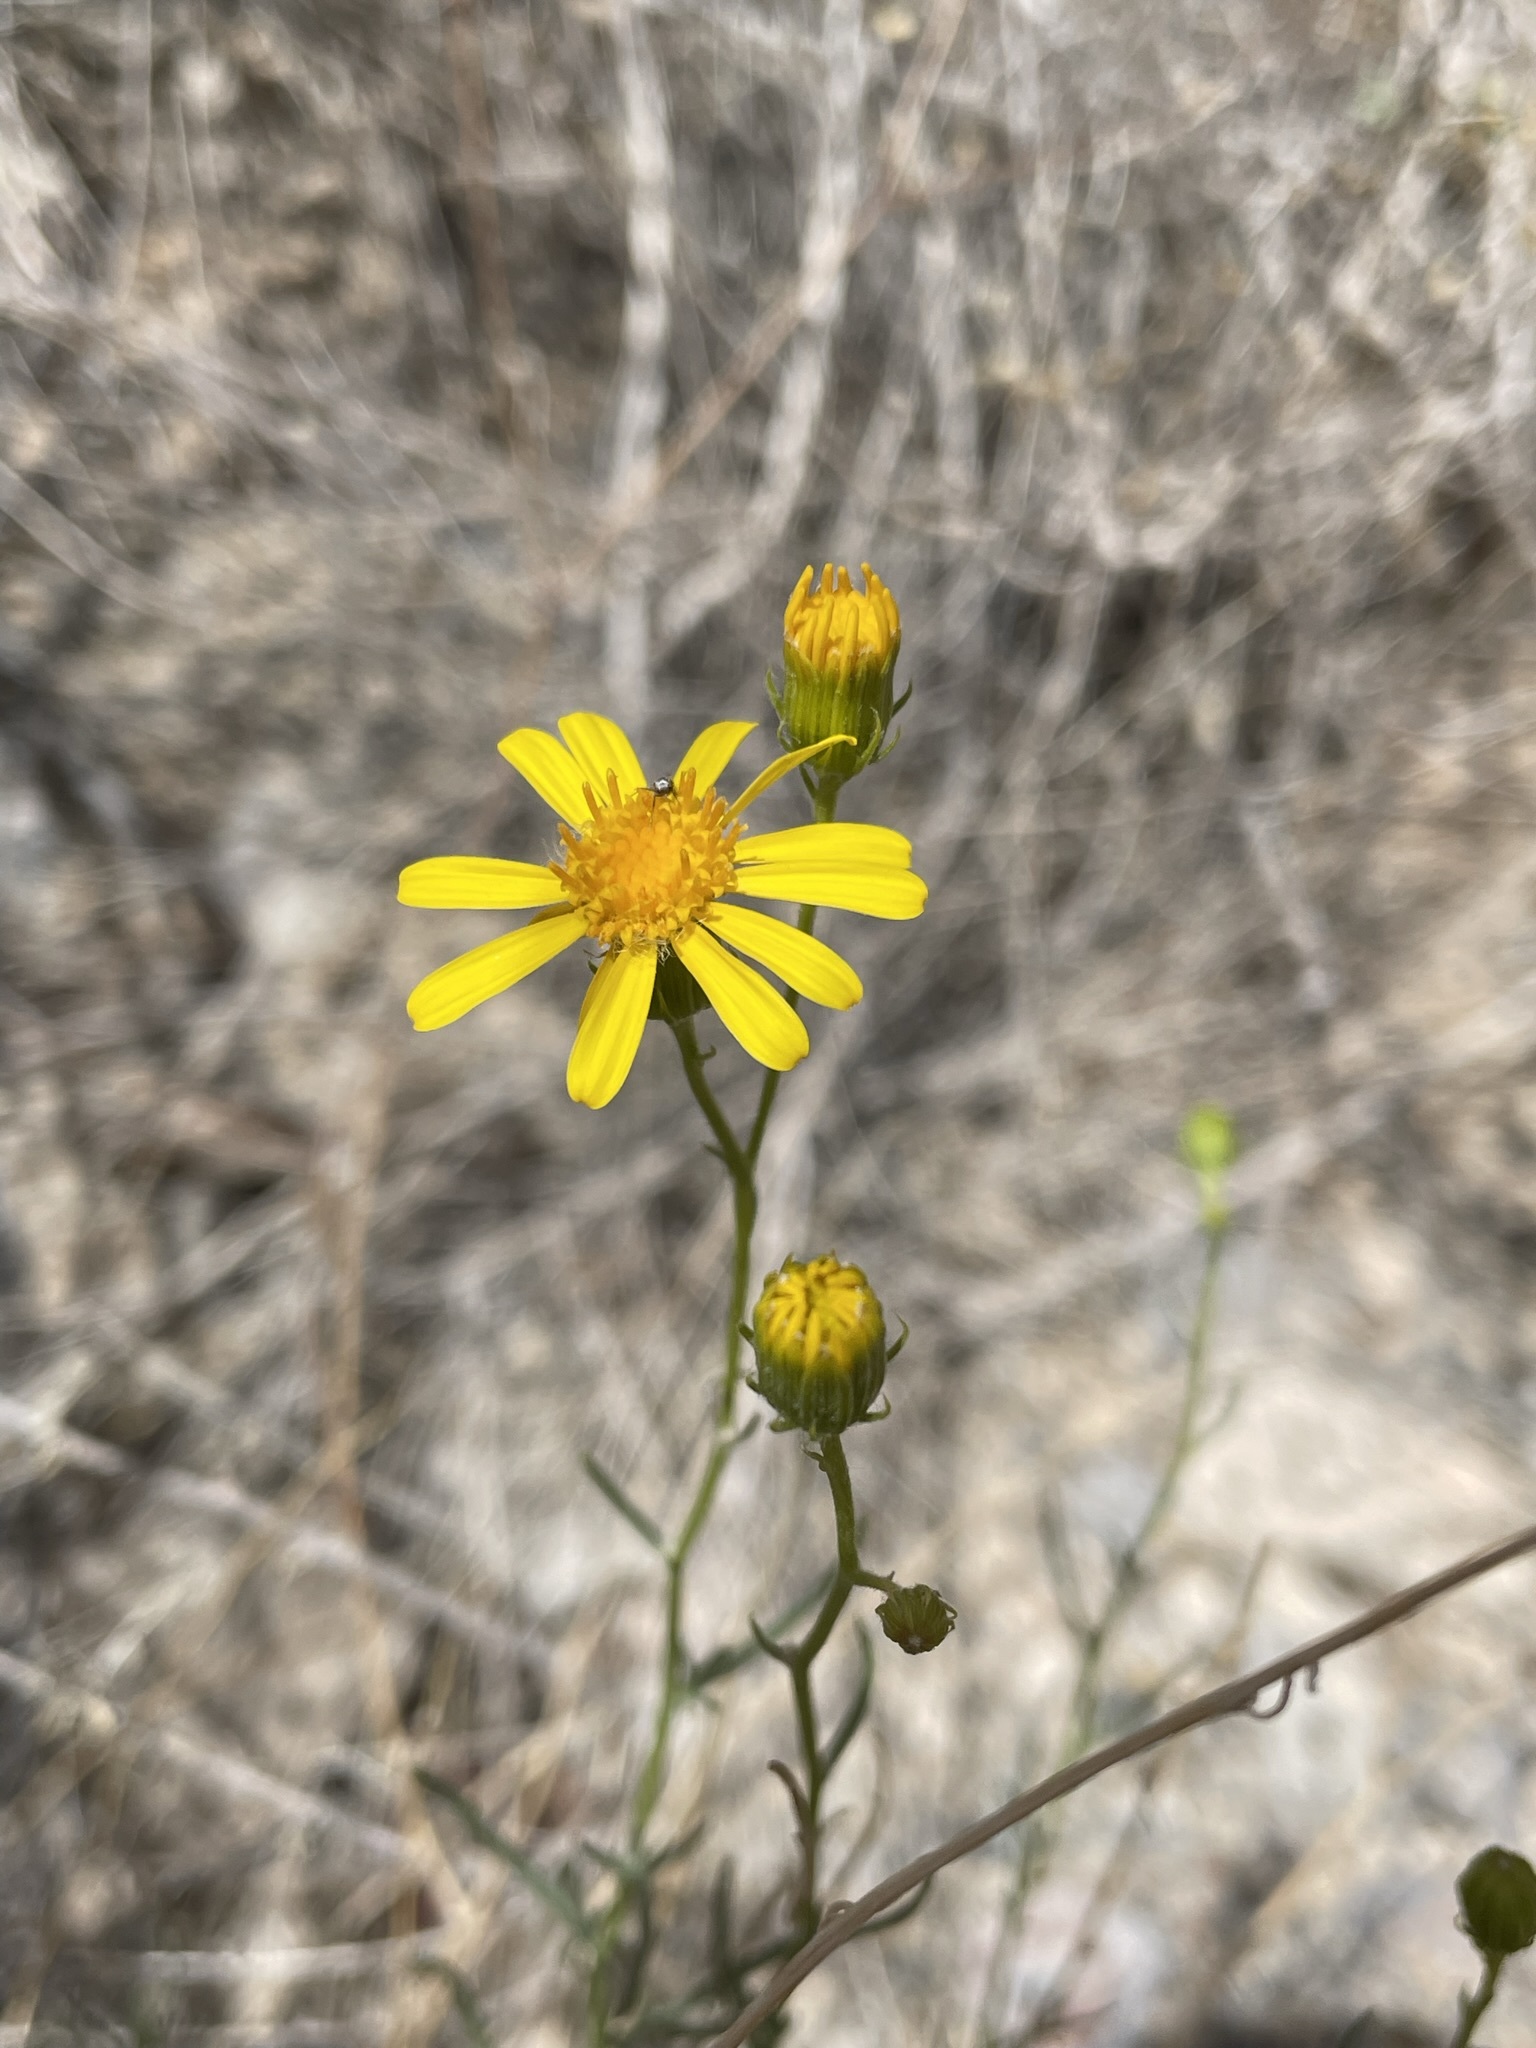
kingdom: Plantae
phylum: Tracheophyta
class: Magnoliopsida
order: Asterales
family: Asteraceae
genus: Senecio
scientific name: Senecio flaccidus
